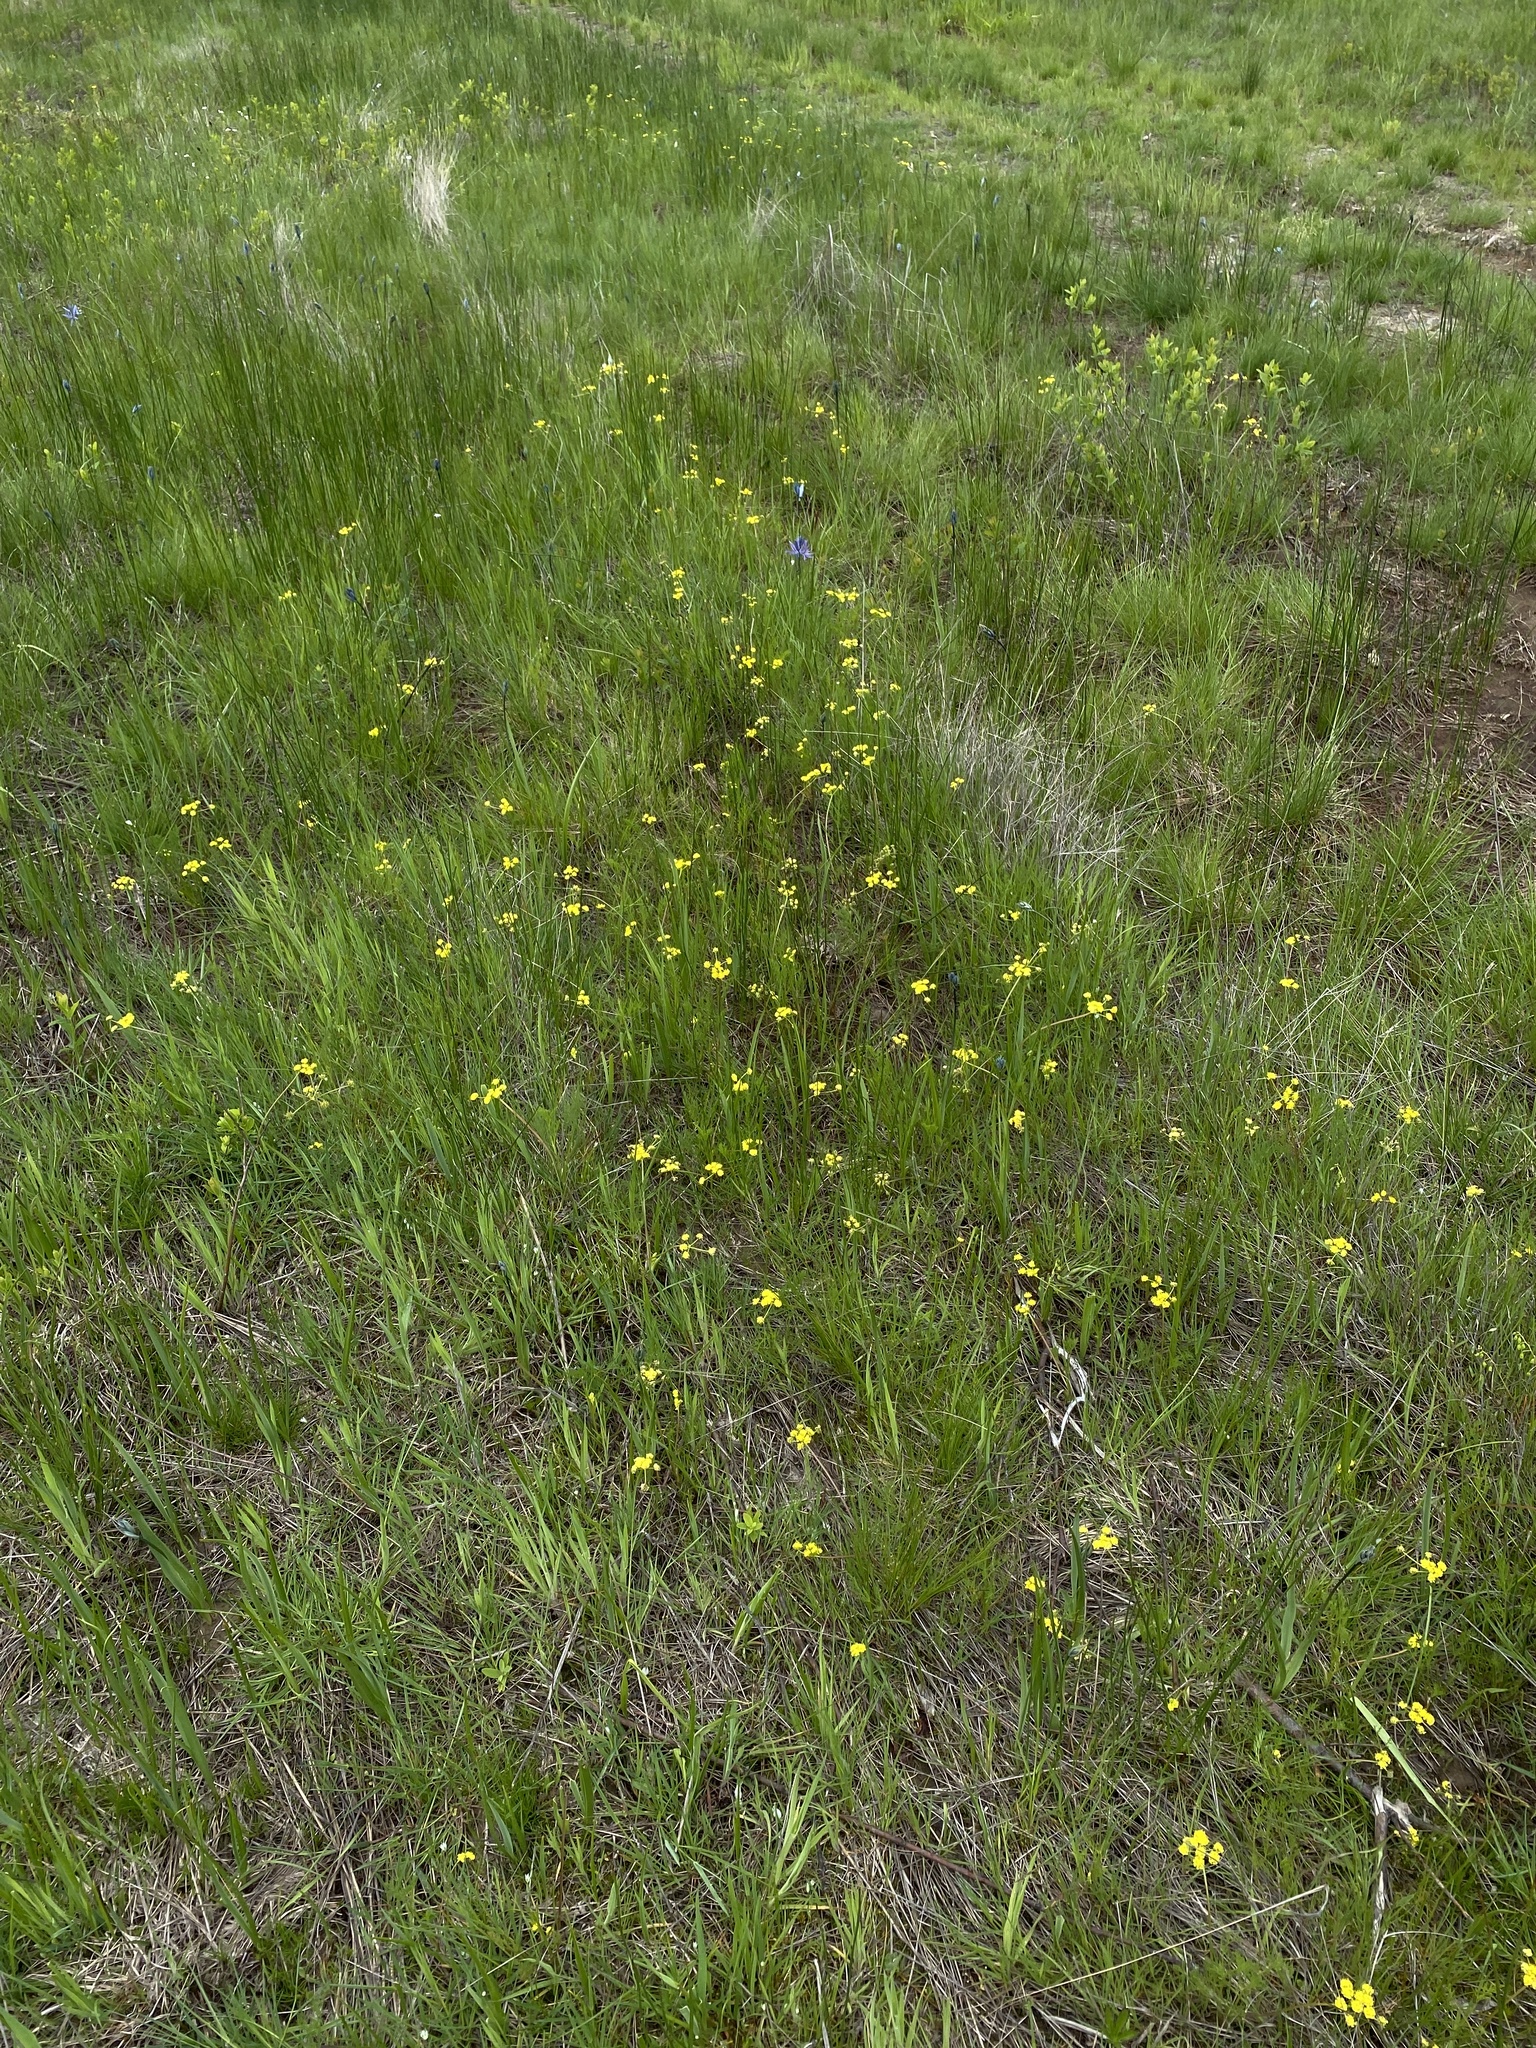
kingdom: Plantae
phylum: Tracheophyta
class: Magnoliopsida
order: Apiales
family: Apiaceae
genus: Lomatium
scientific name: Lomatium bradshawii
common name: Bradshaw's desert-parsley
